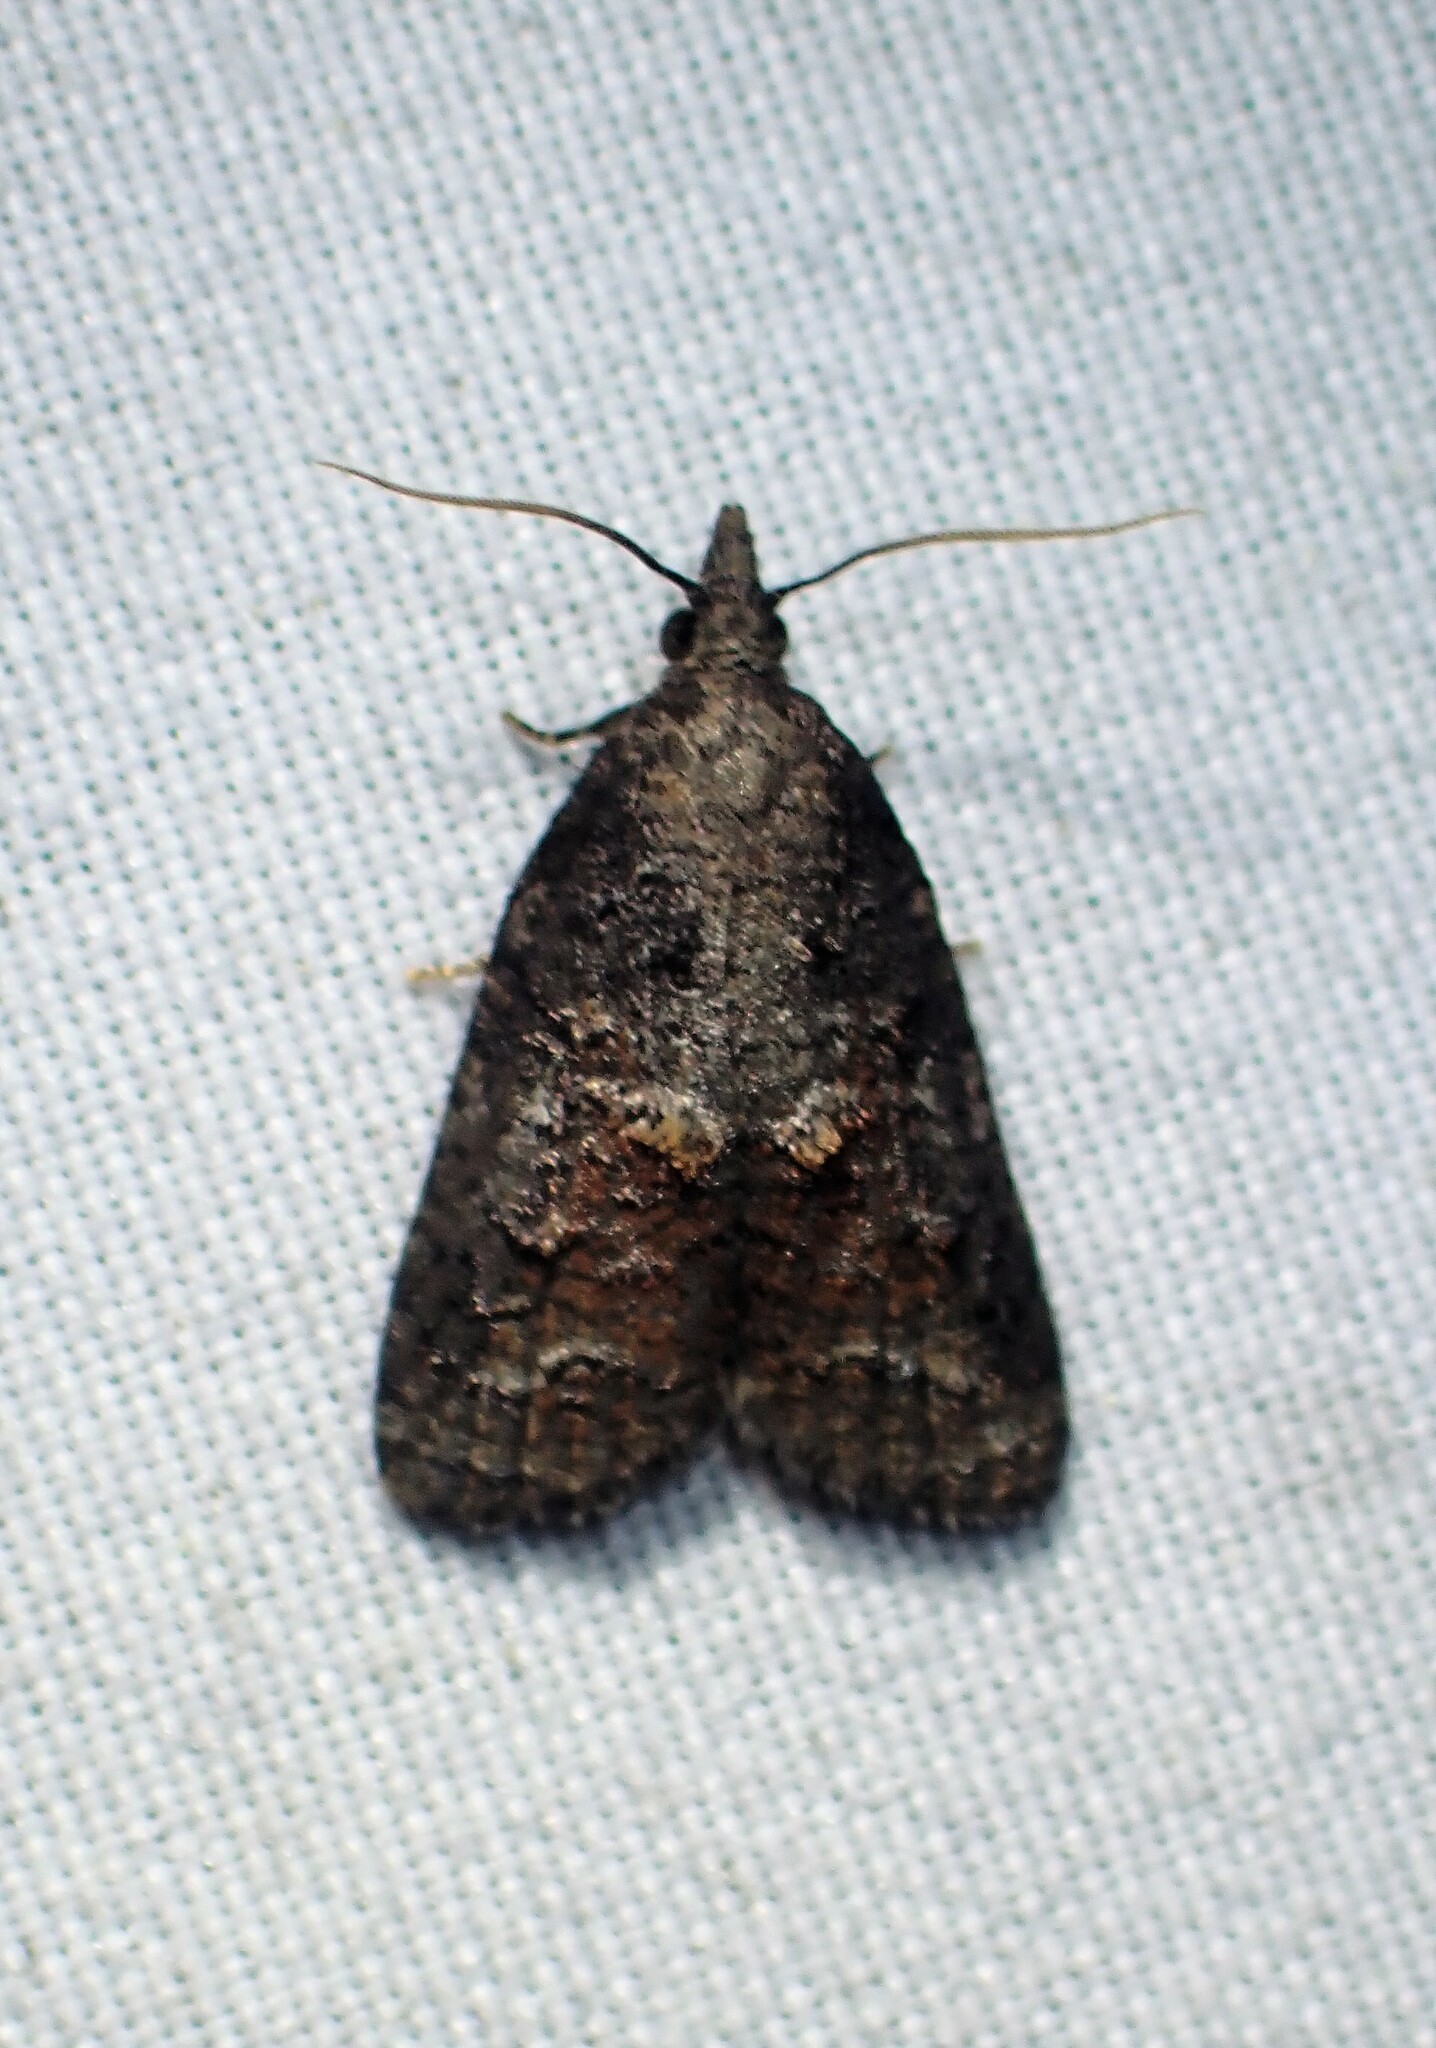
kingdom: Animalia
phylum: Arthropoda
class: Insecta
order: Lepidoptera
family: Tortricidae
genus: Platynota
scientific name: Platynota idaeusalis
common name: Tufted apple bud moth
